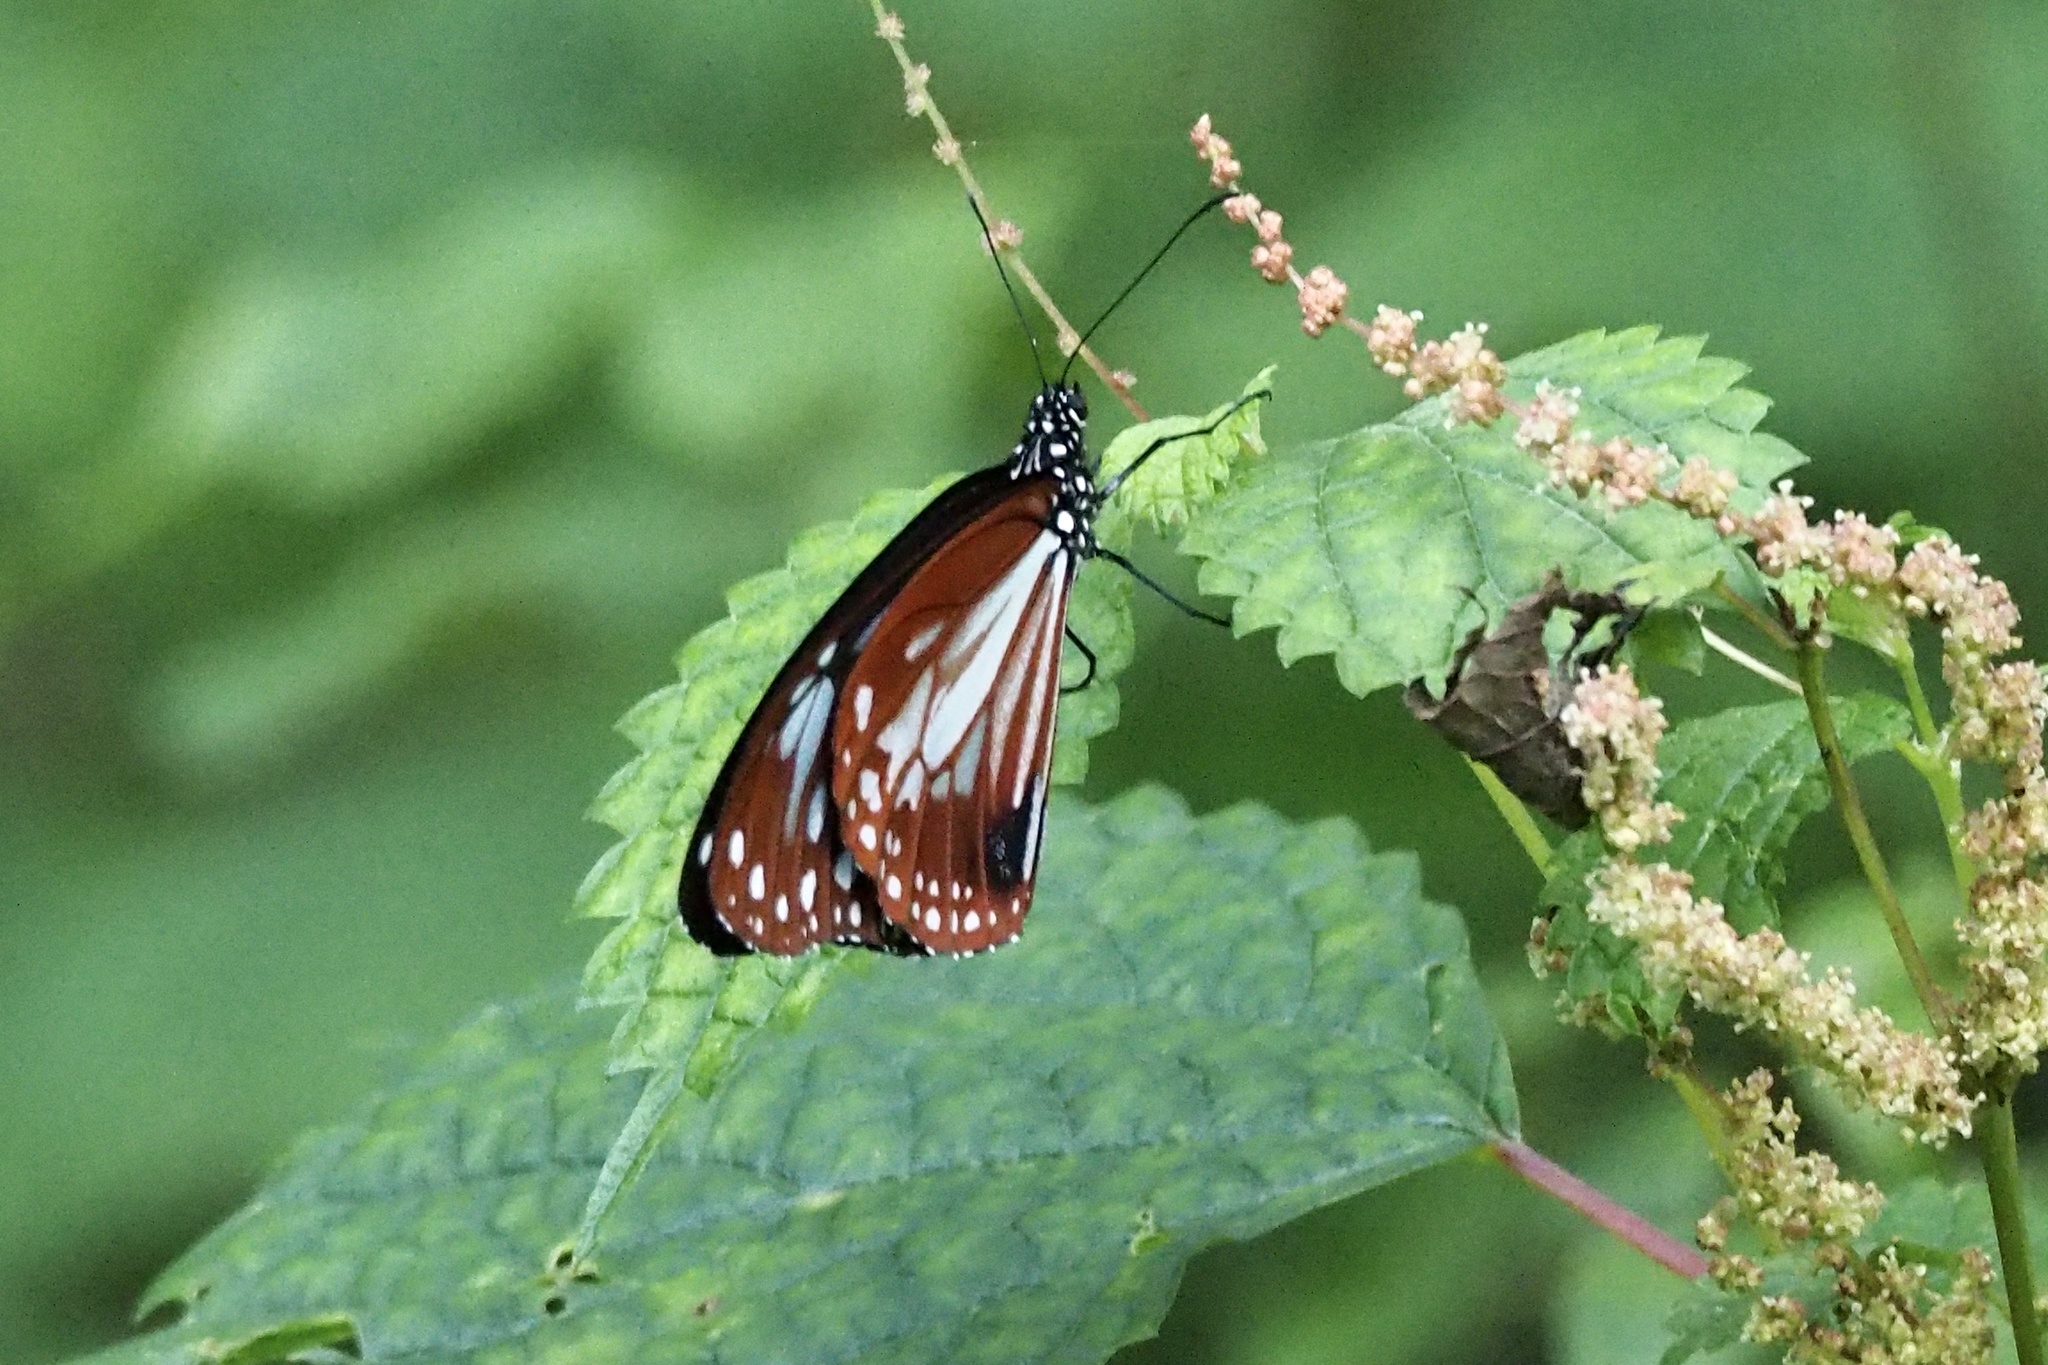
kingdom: Animalia
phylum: Arthropoda
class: Insecta
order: Lepidoptera
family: Nymphalidae
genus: Parantica
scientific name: Parantica sita
